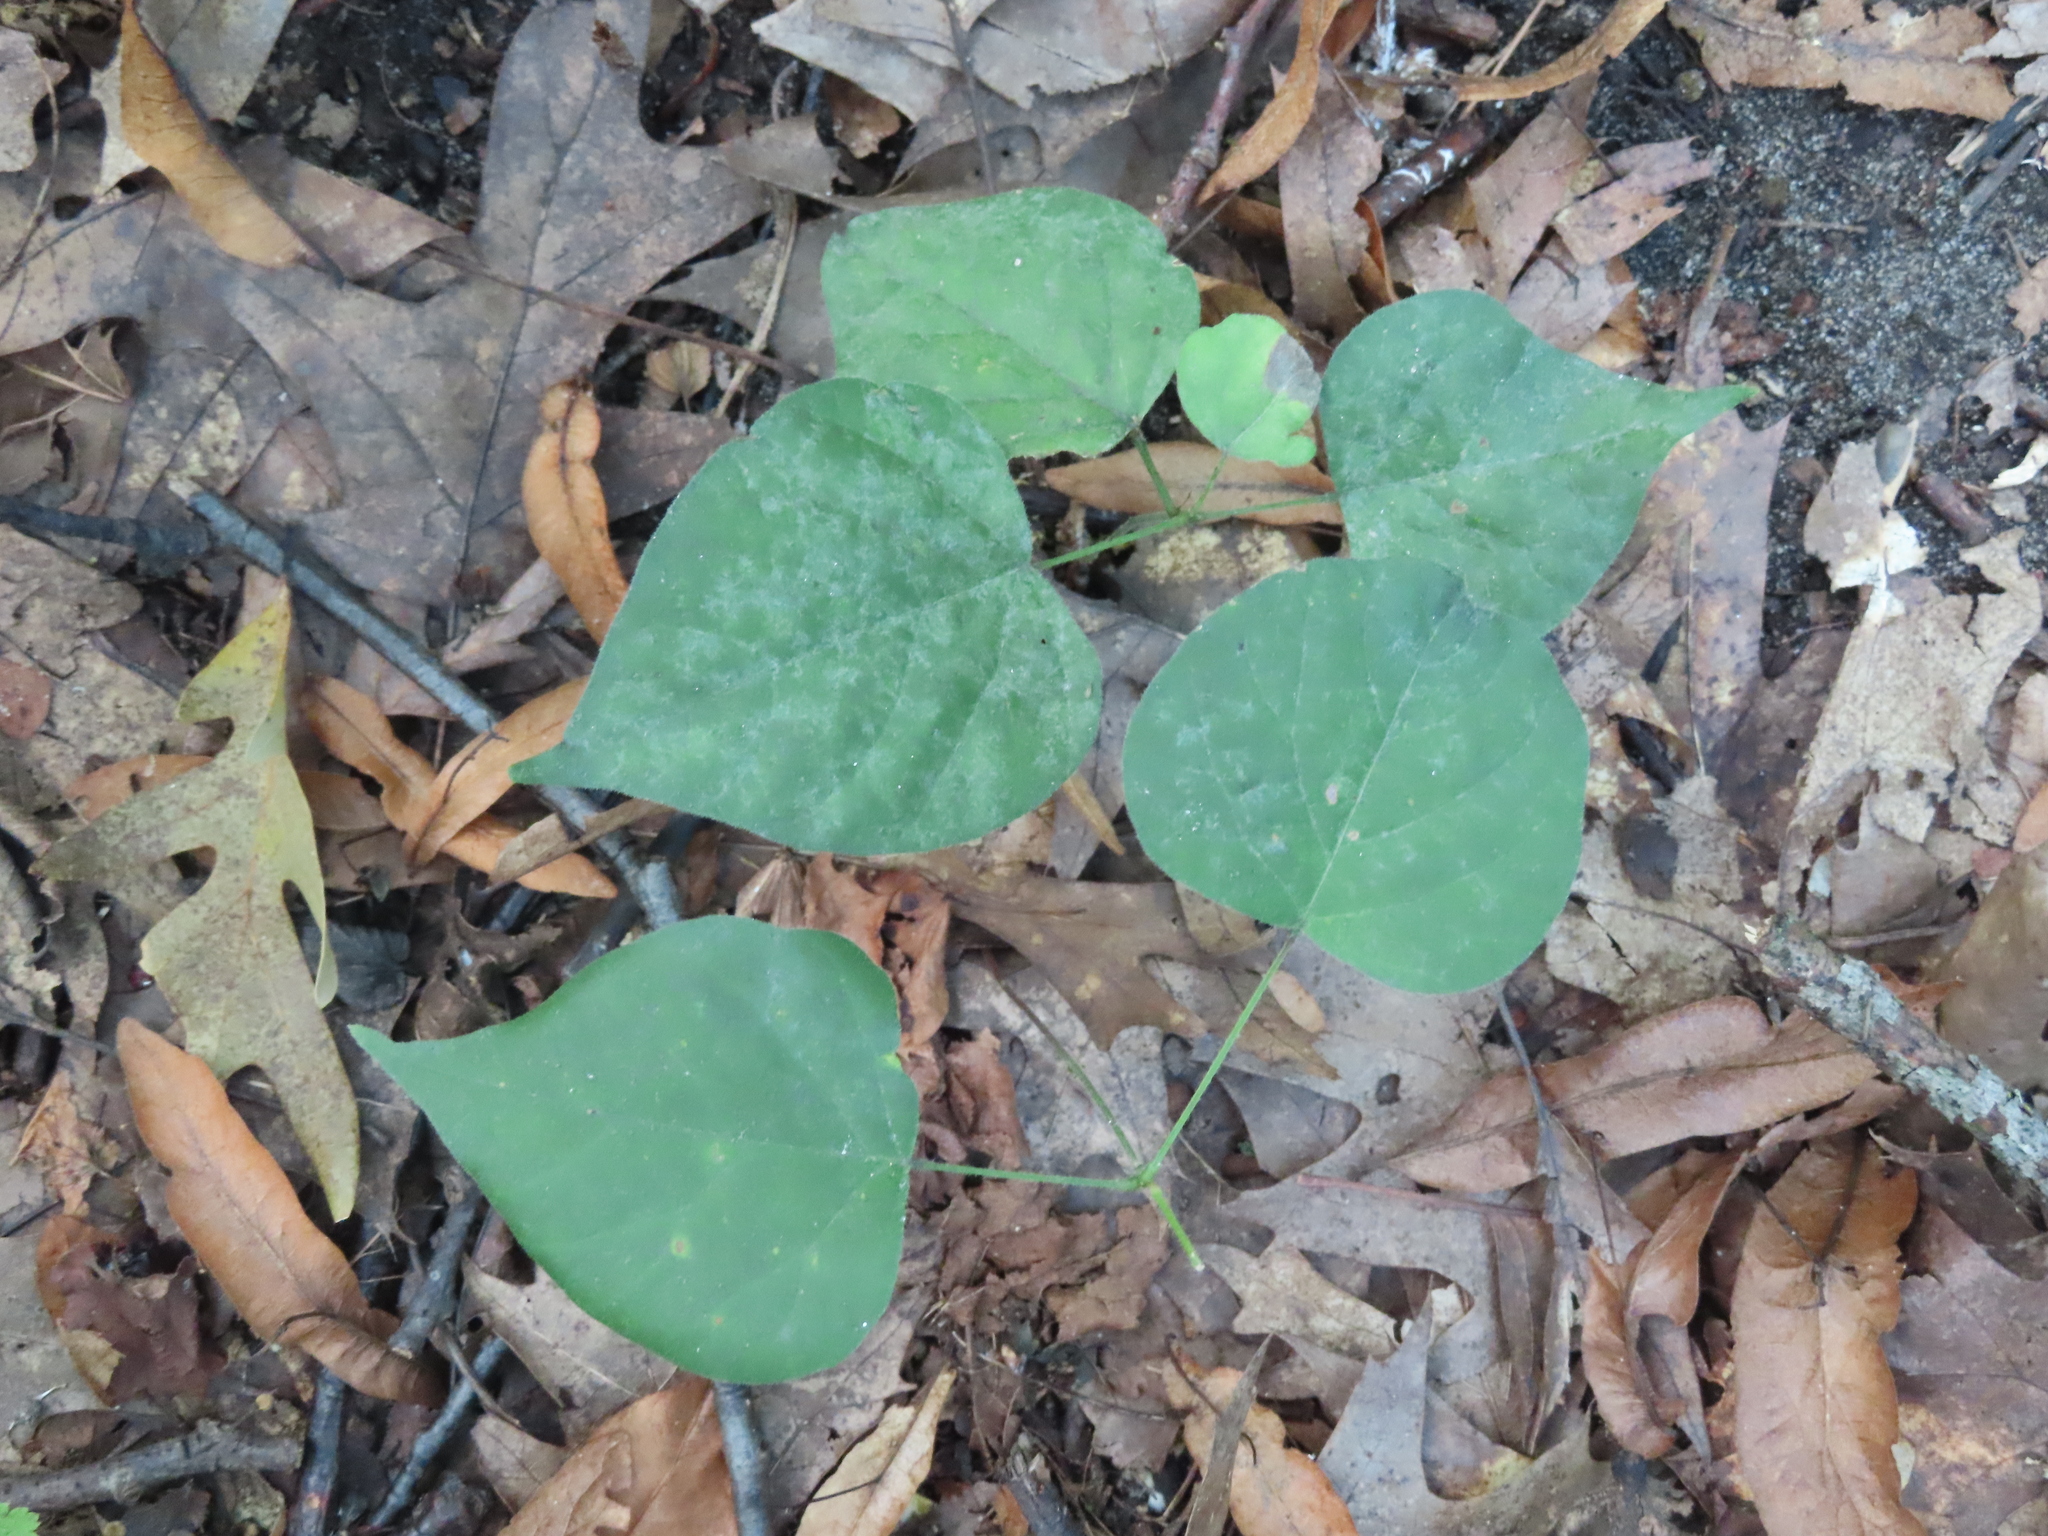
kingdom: Plantae
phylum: Tracheophyta
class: Magnoliopsida
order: Fabales
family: Fabaceae
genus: Hylodesmum
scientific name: Hylodesmum glutinosum
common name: Clustered-leaved tick-trefoil
